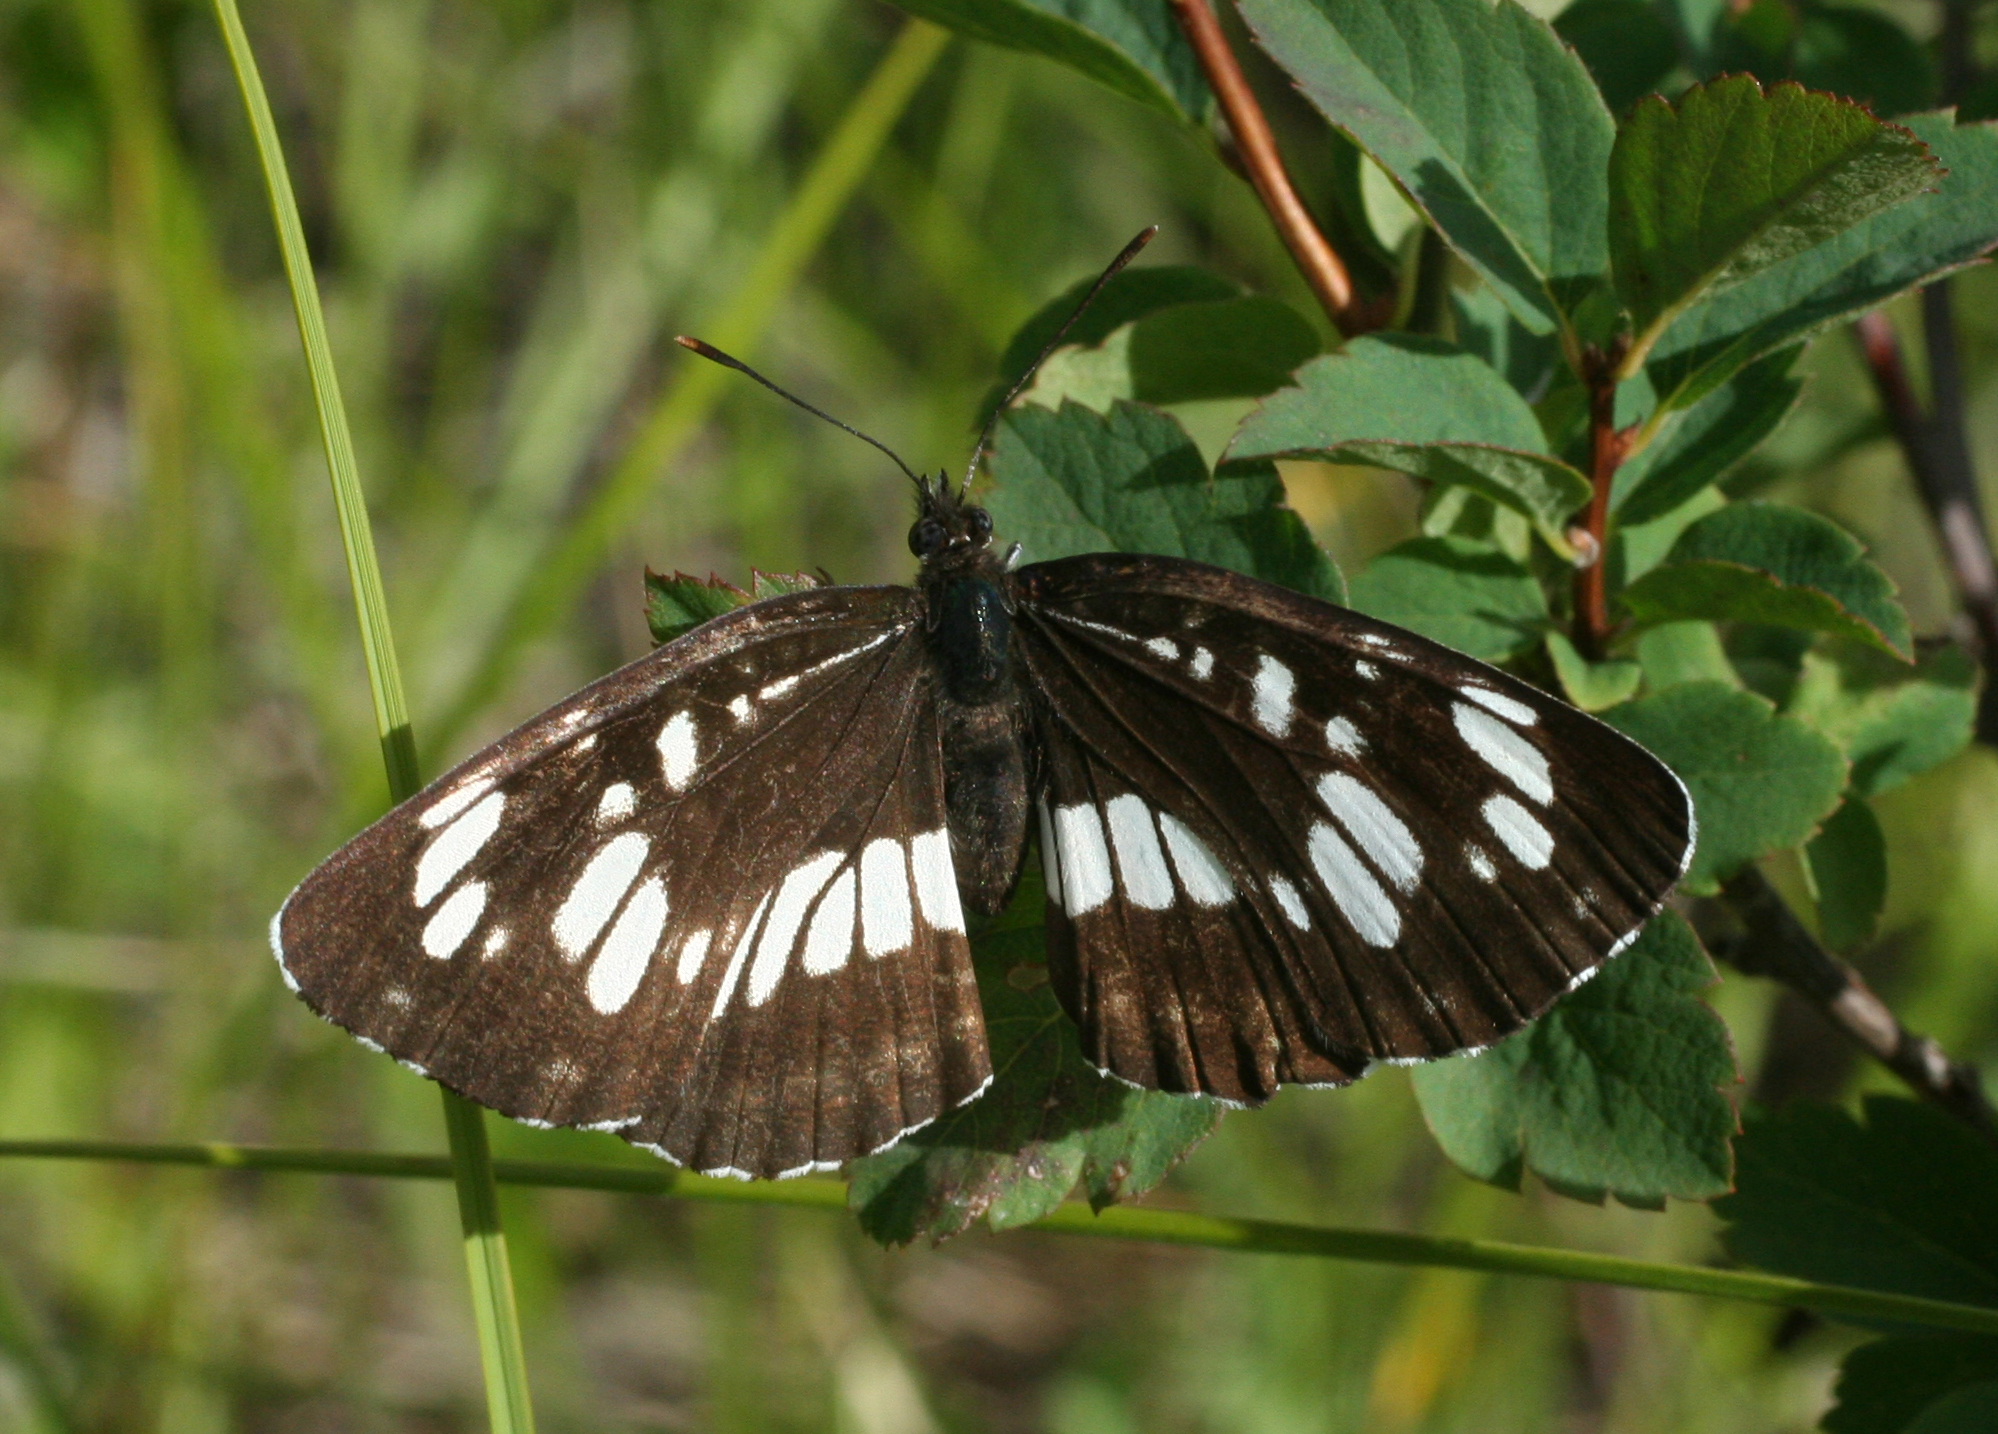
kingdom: Animalia
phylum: Arthropoda
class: Insecta
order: Lepidoptera
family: Nymphalidae
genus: Neptis
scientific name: Neptis rivularis
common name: Hungarian glider
